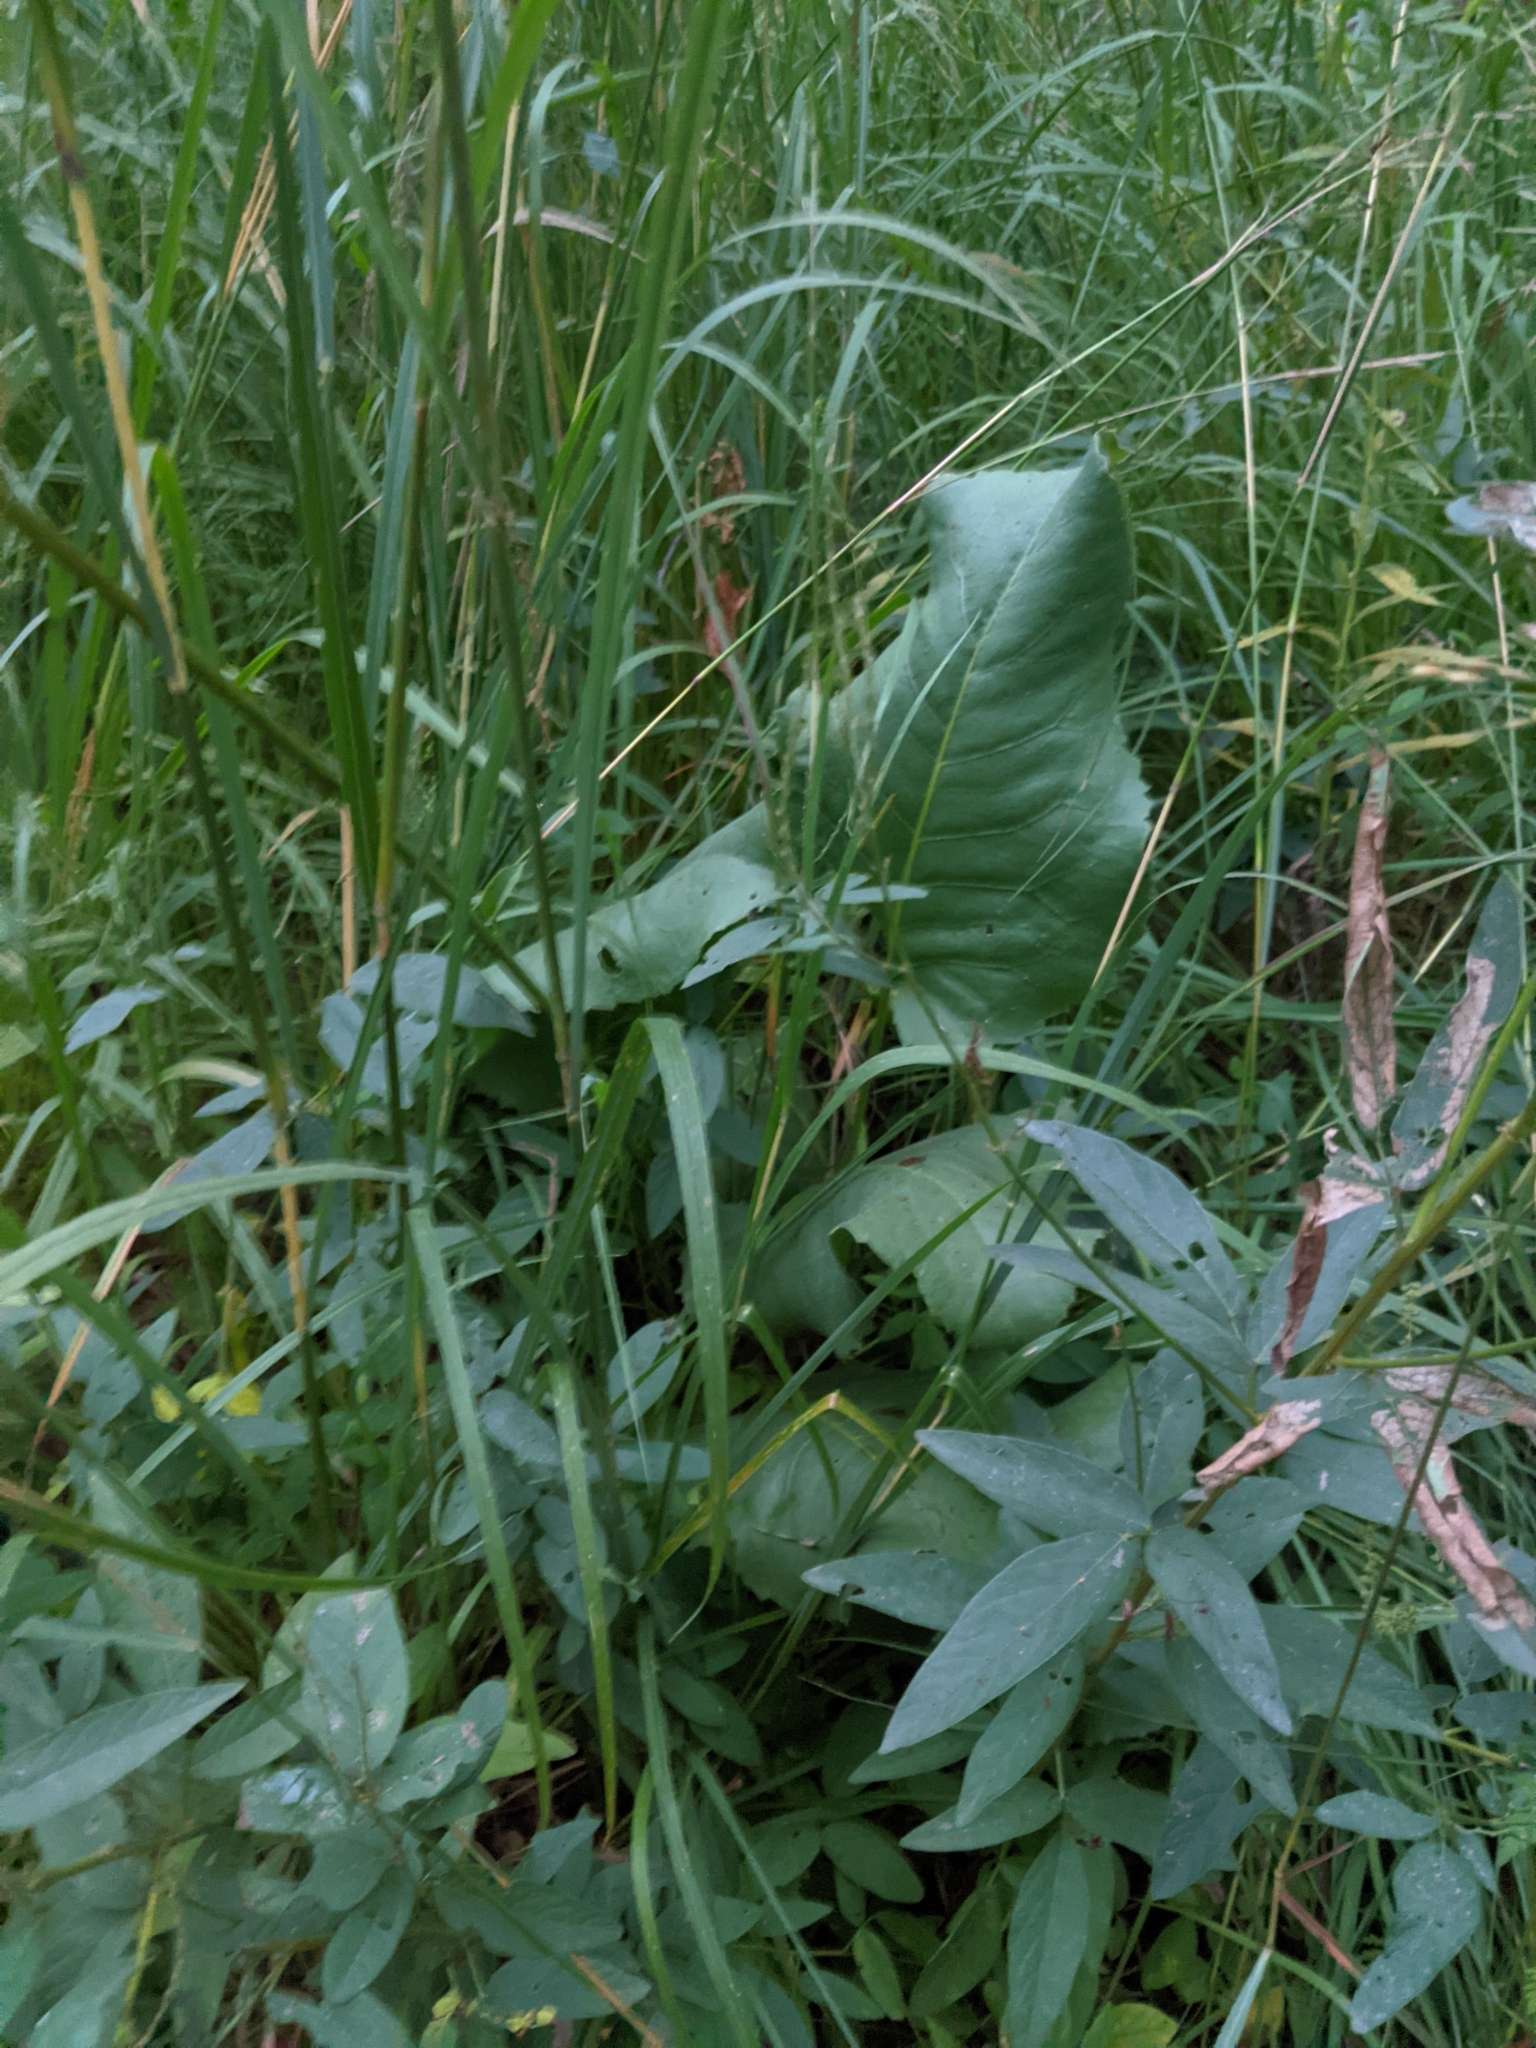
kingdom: Plantae
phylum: Tracheophyta
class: Magnoliopsida
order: Asterales
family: Asteraceae
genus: Silphium
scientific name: Silphium terebinthinaceum
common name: Basal-leaf rosinweed
